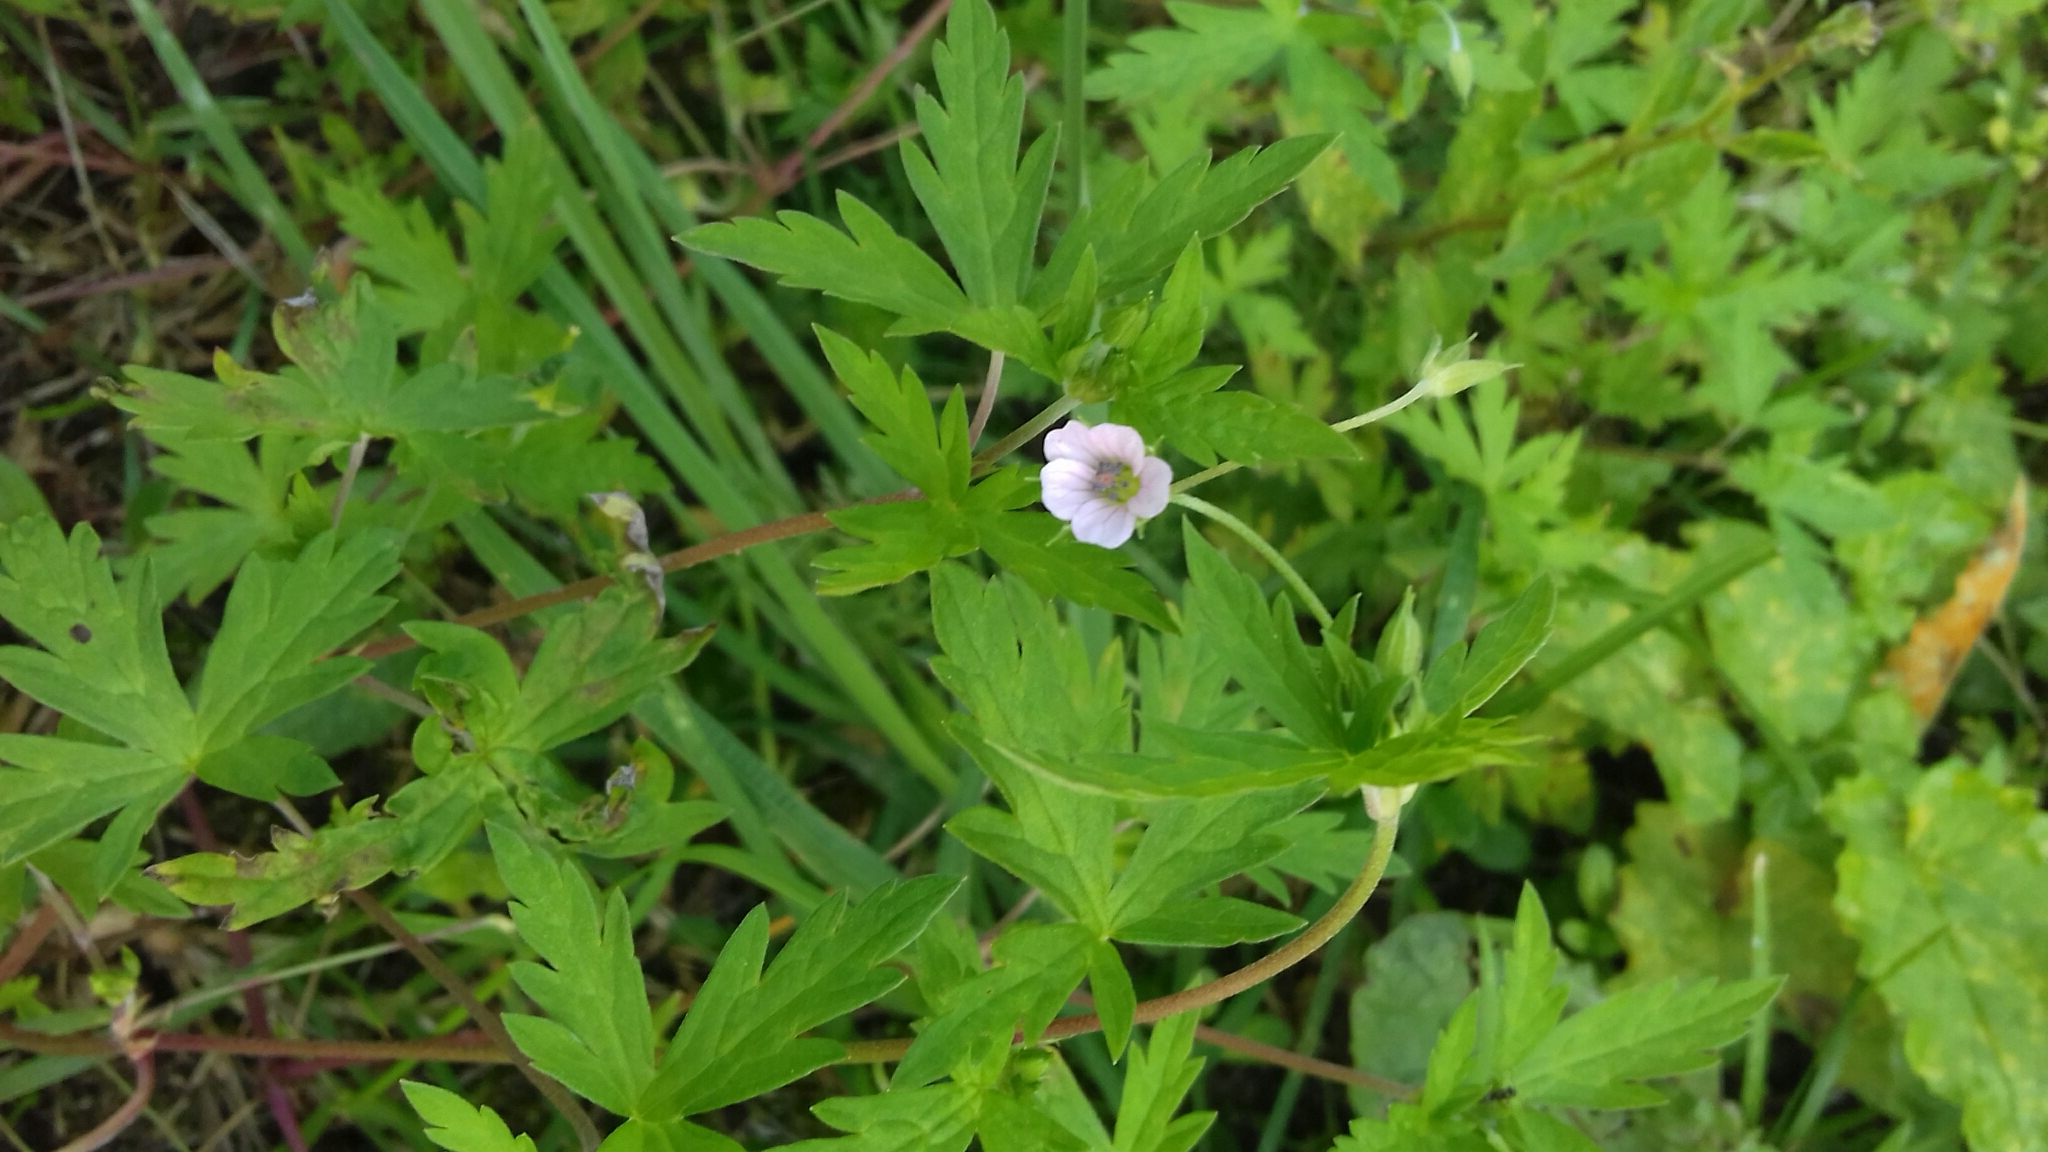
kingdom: Plantae
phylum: Tracheophyta
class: Magnoliopsida
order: Geraniales
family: Geraniaceae
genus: Geranium
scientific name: Geranium sibiricum
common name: Siberian crane's-bill
